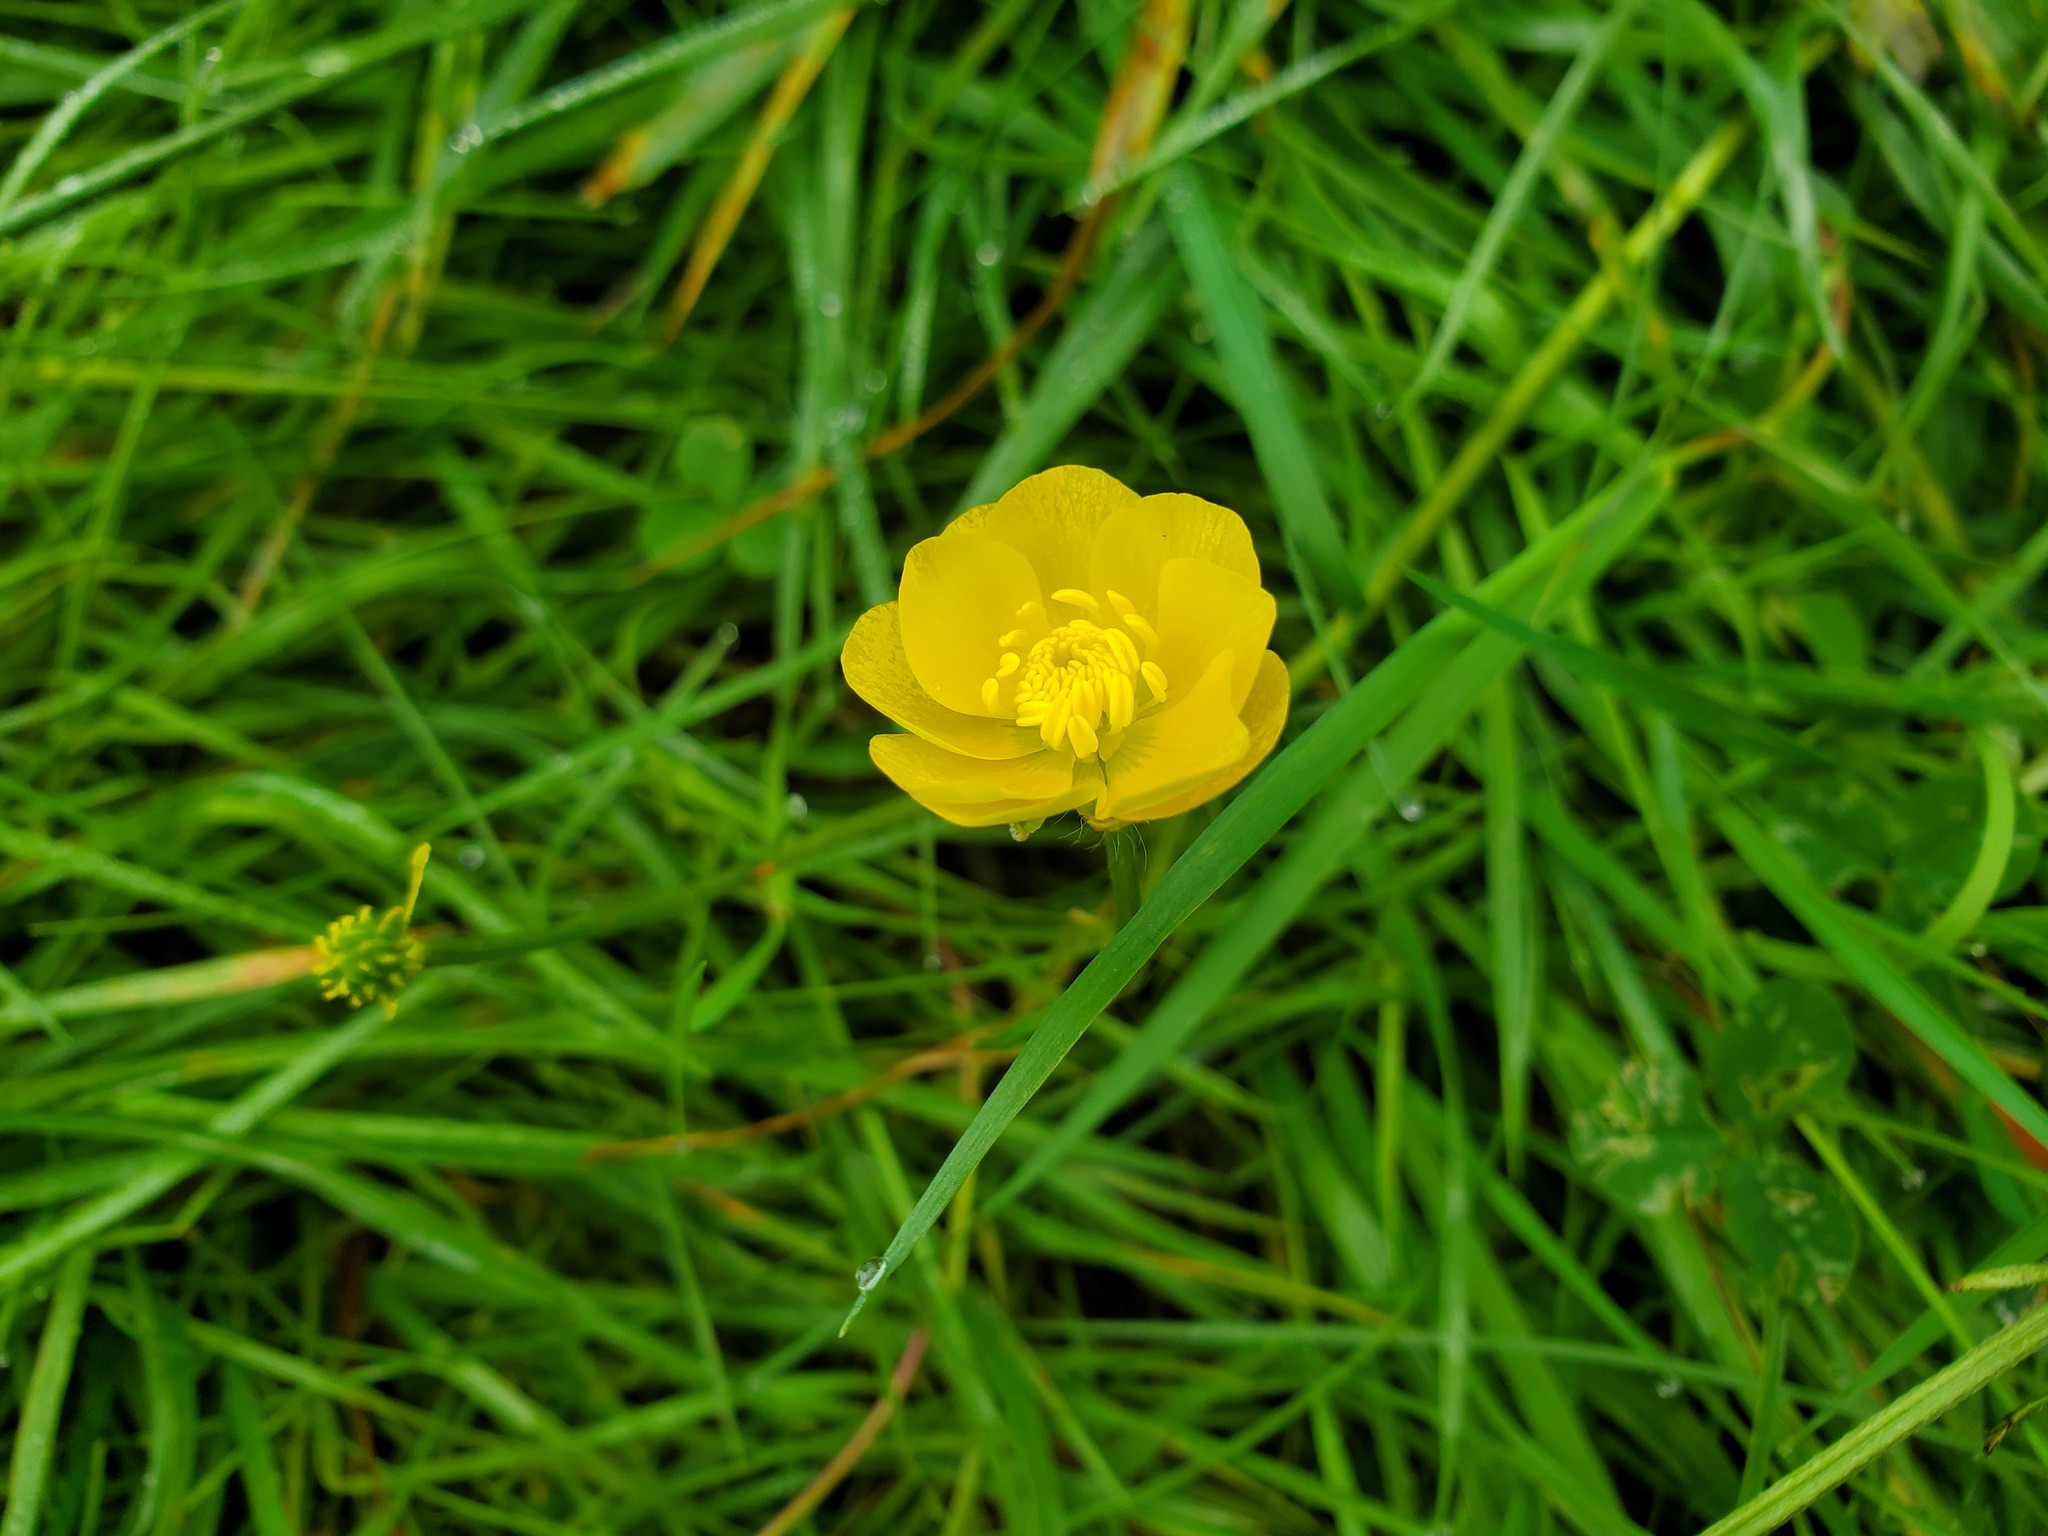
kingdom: Plantae
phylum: Tracheophyta
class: Magnoliopsida
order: Ranunculales
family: Ranunculaceae
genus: Ranunculus
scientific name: Ranunculus bulbosus
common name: Bulbous buttercup
